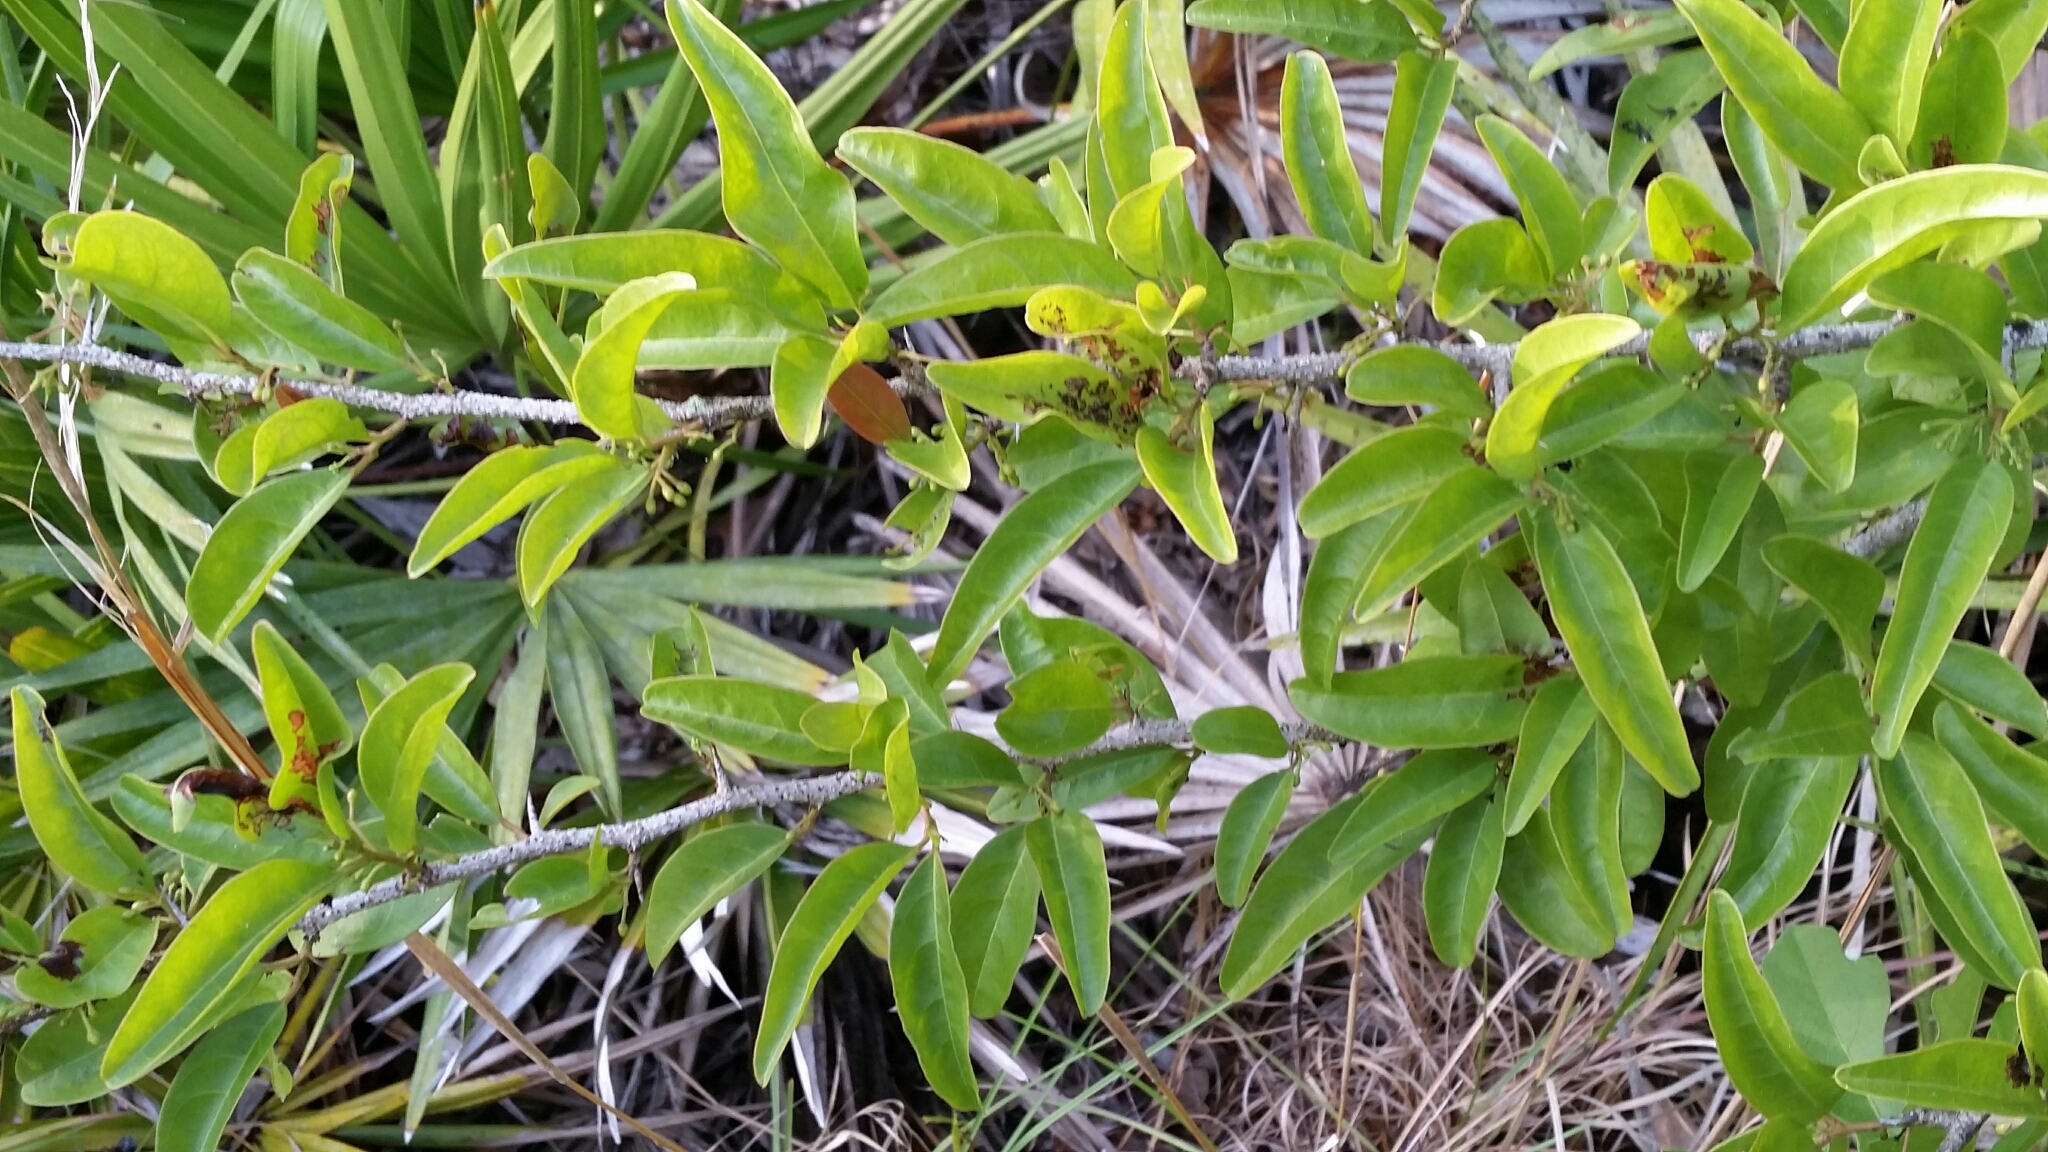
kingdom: Plantae
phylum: Tracheophyta
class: Magnoliopsida
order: Santalales
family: Ximeniaceae
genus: Ximenia
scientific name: Ximenia americana
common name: Tallowwood
